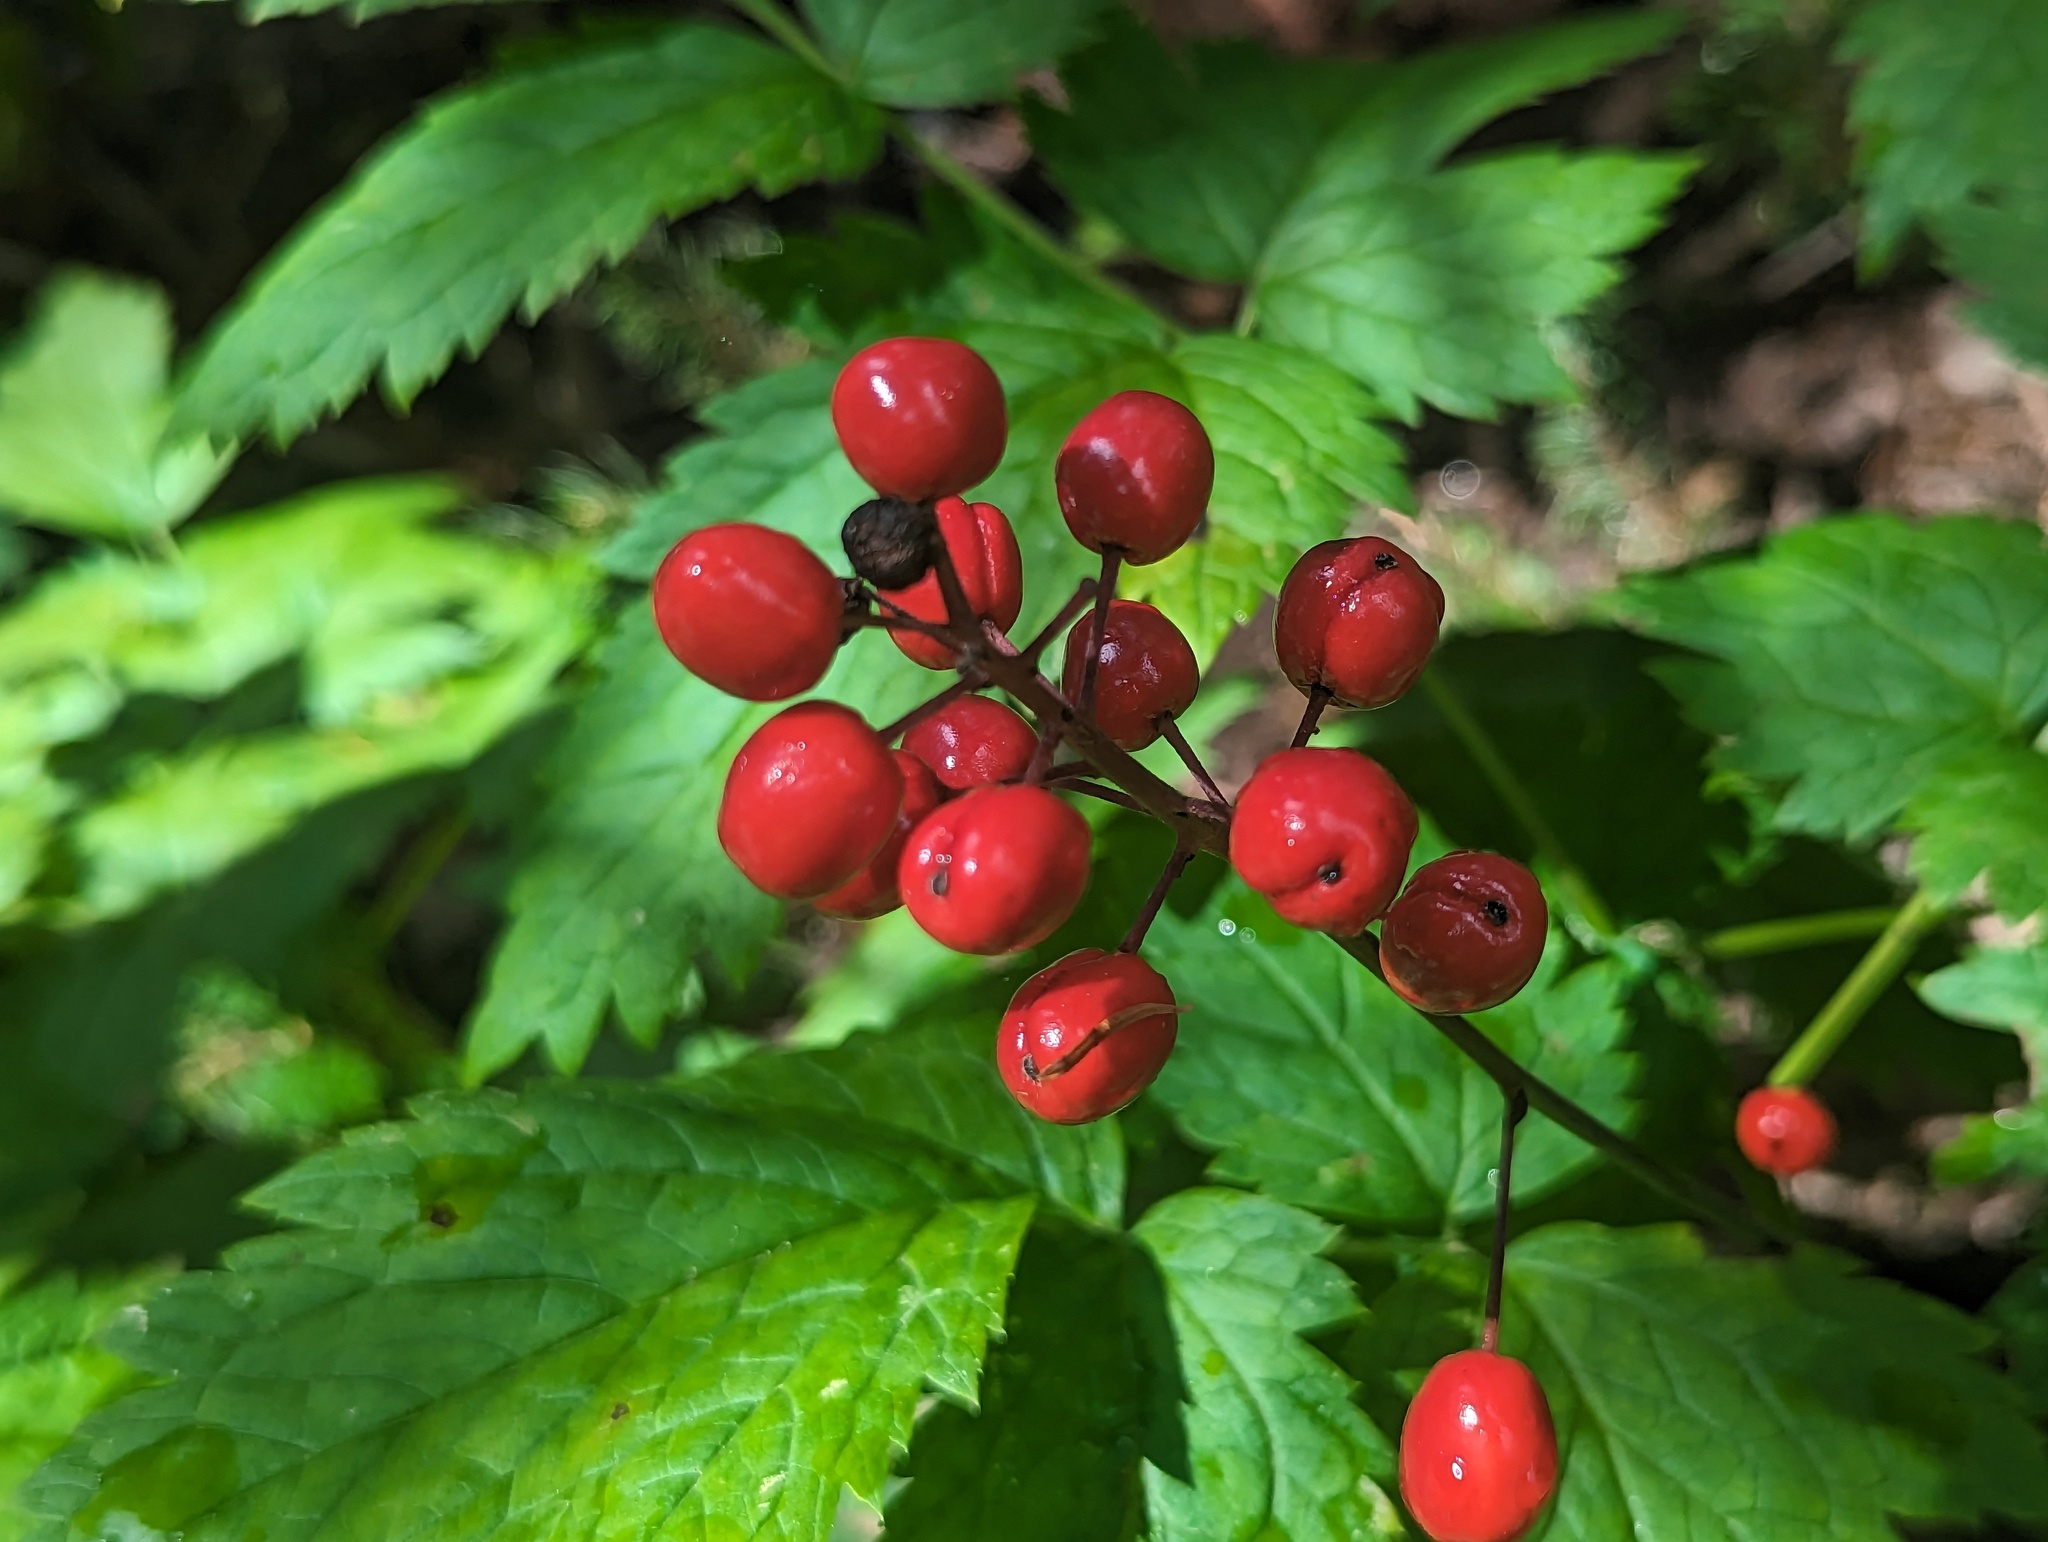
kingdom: Plantae
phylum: Tracheophyta
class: Magnoliopsida
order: Ranunculales
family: Ranunculaceae
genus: Actaea
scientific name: Actaea rubra
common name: Red baneberry
